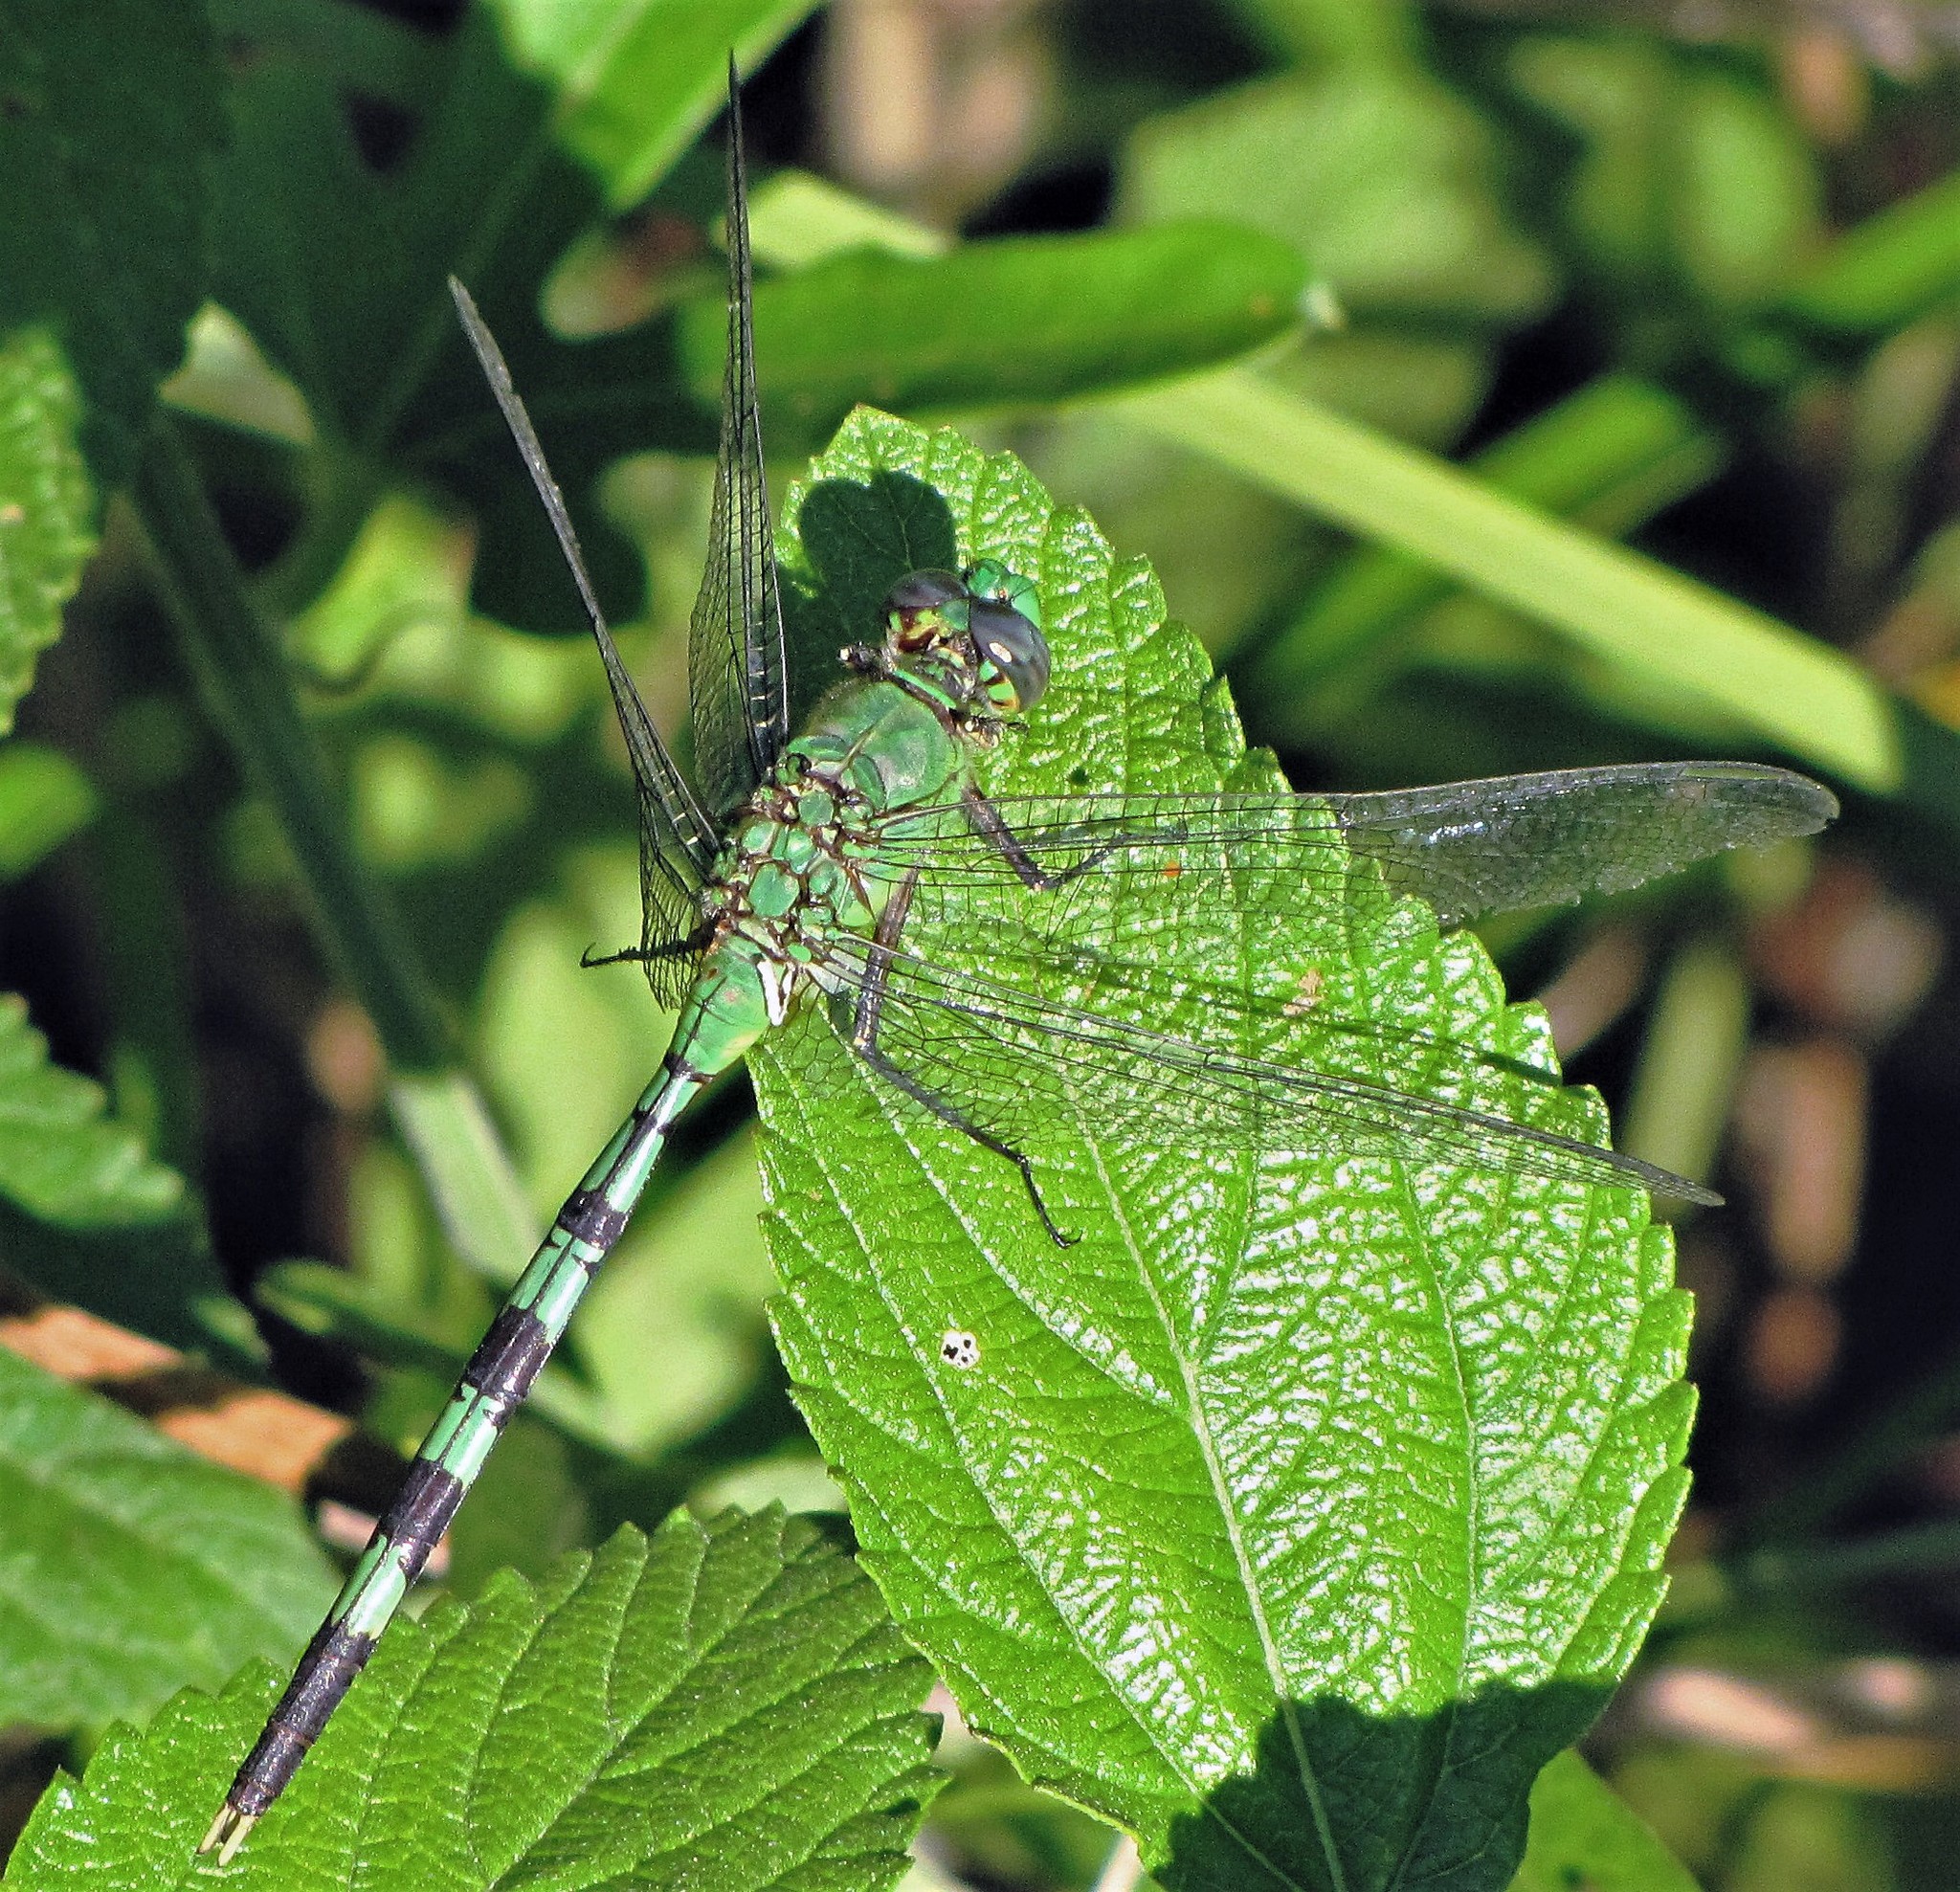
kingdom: Animalia
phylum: Arthropoda
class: Insecta
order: Odonata
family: Libellulidae
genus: Erythemis
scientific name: Erythemis vesiculosa
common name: Great pondhawk
